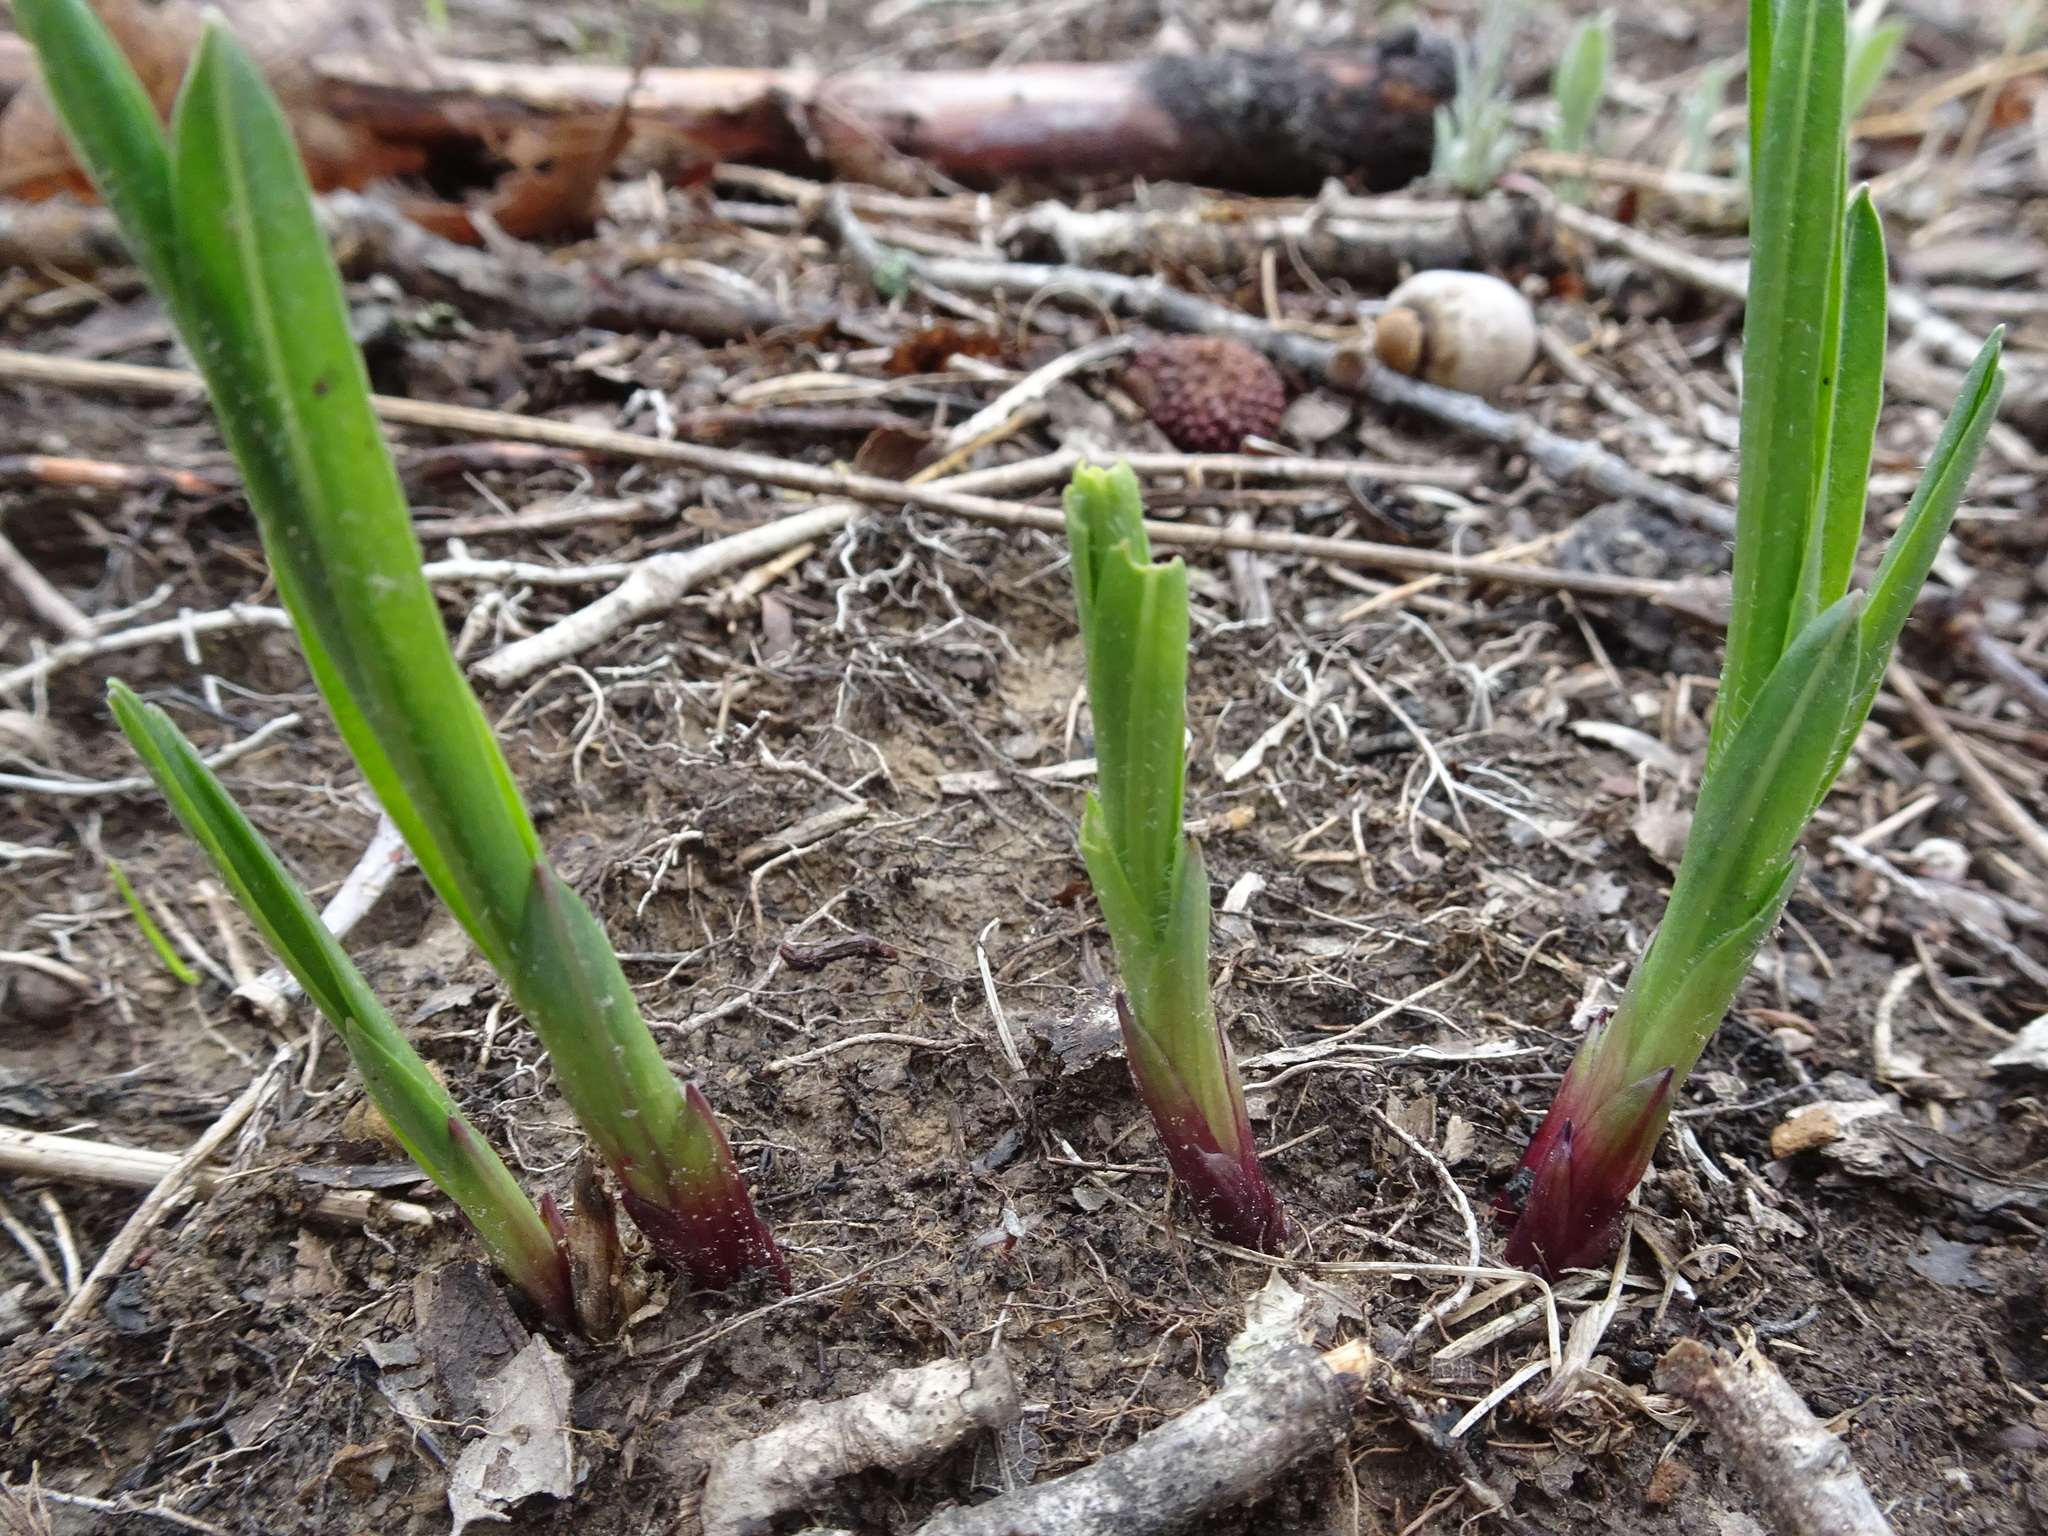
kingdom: Plantae
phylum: Tracheophyta
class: Magnoliopsida
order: Asterales
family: Asteraceae
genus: Liatris
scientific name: Liatris hirsuta
